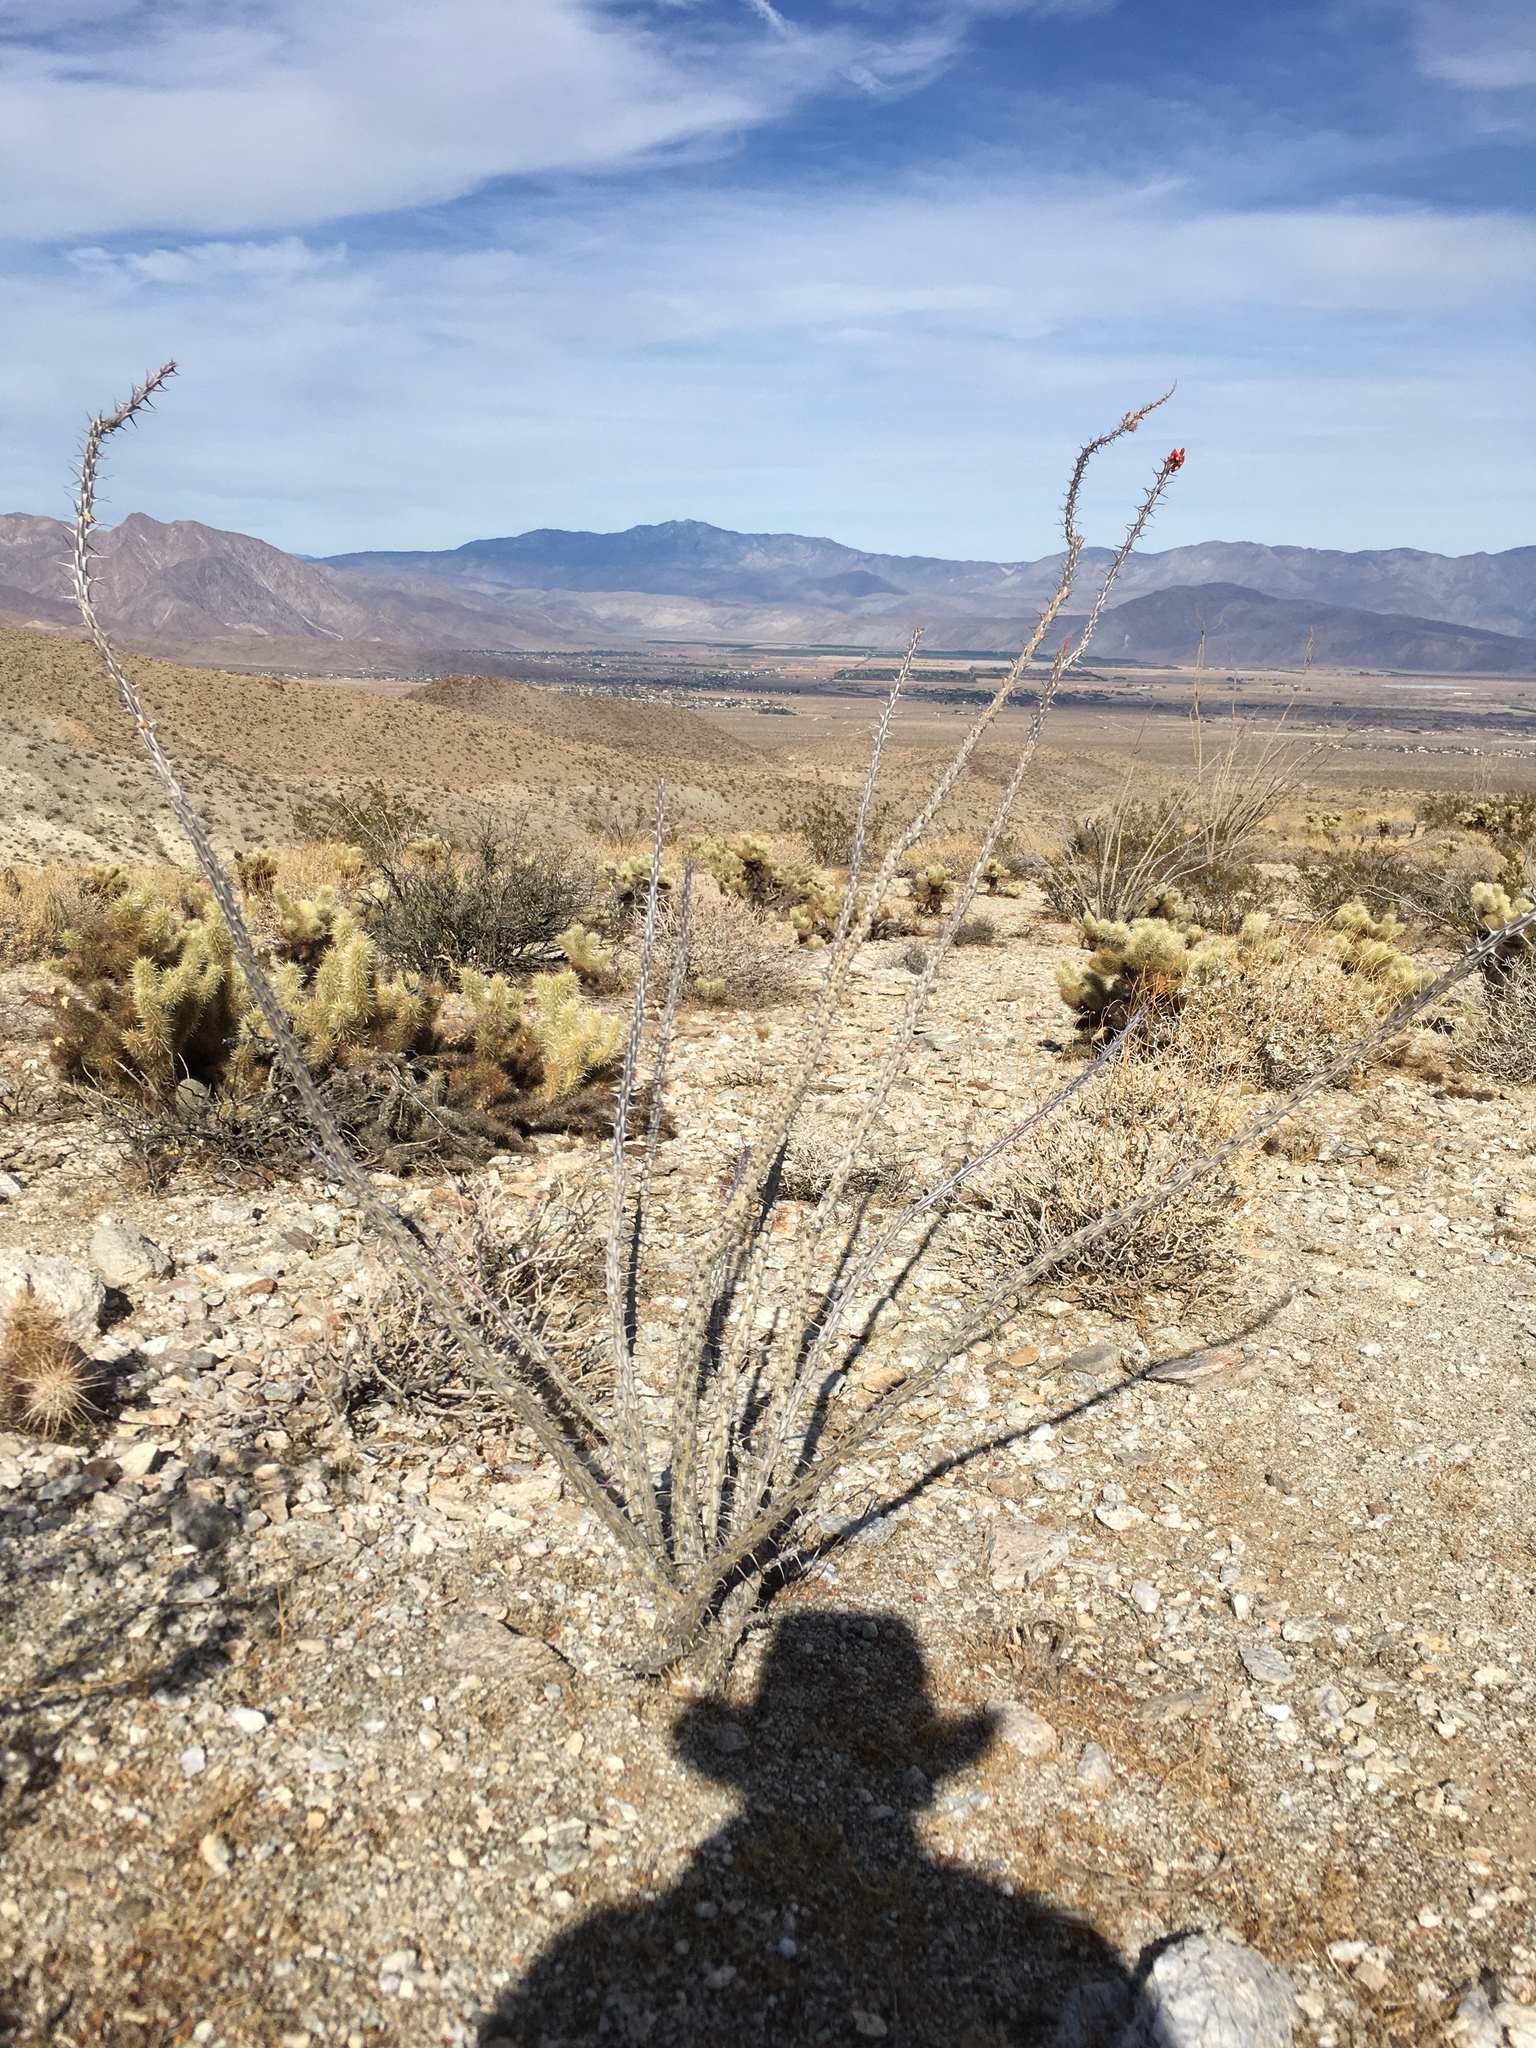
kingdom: Plantae
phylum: Tracheophyta
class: Magnoliopsida
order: Ericales
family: Fouquieriaceae
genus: Fouquieria
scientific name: Fouquieria splendens
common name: Vine-cactus
